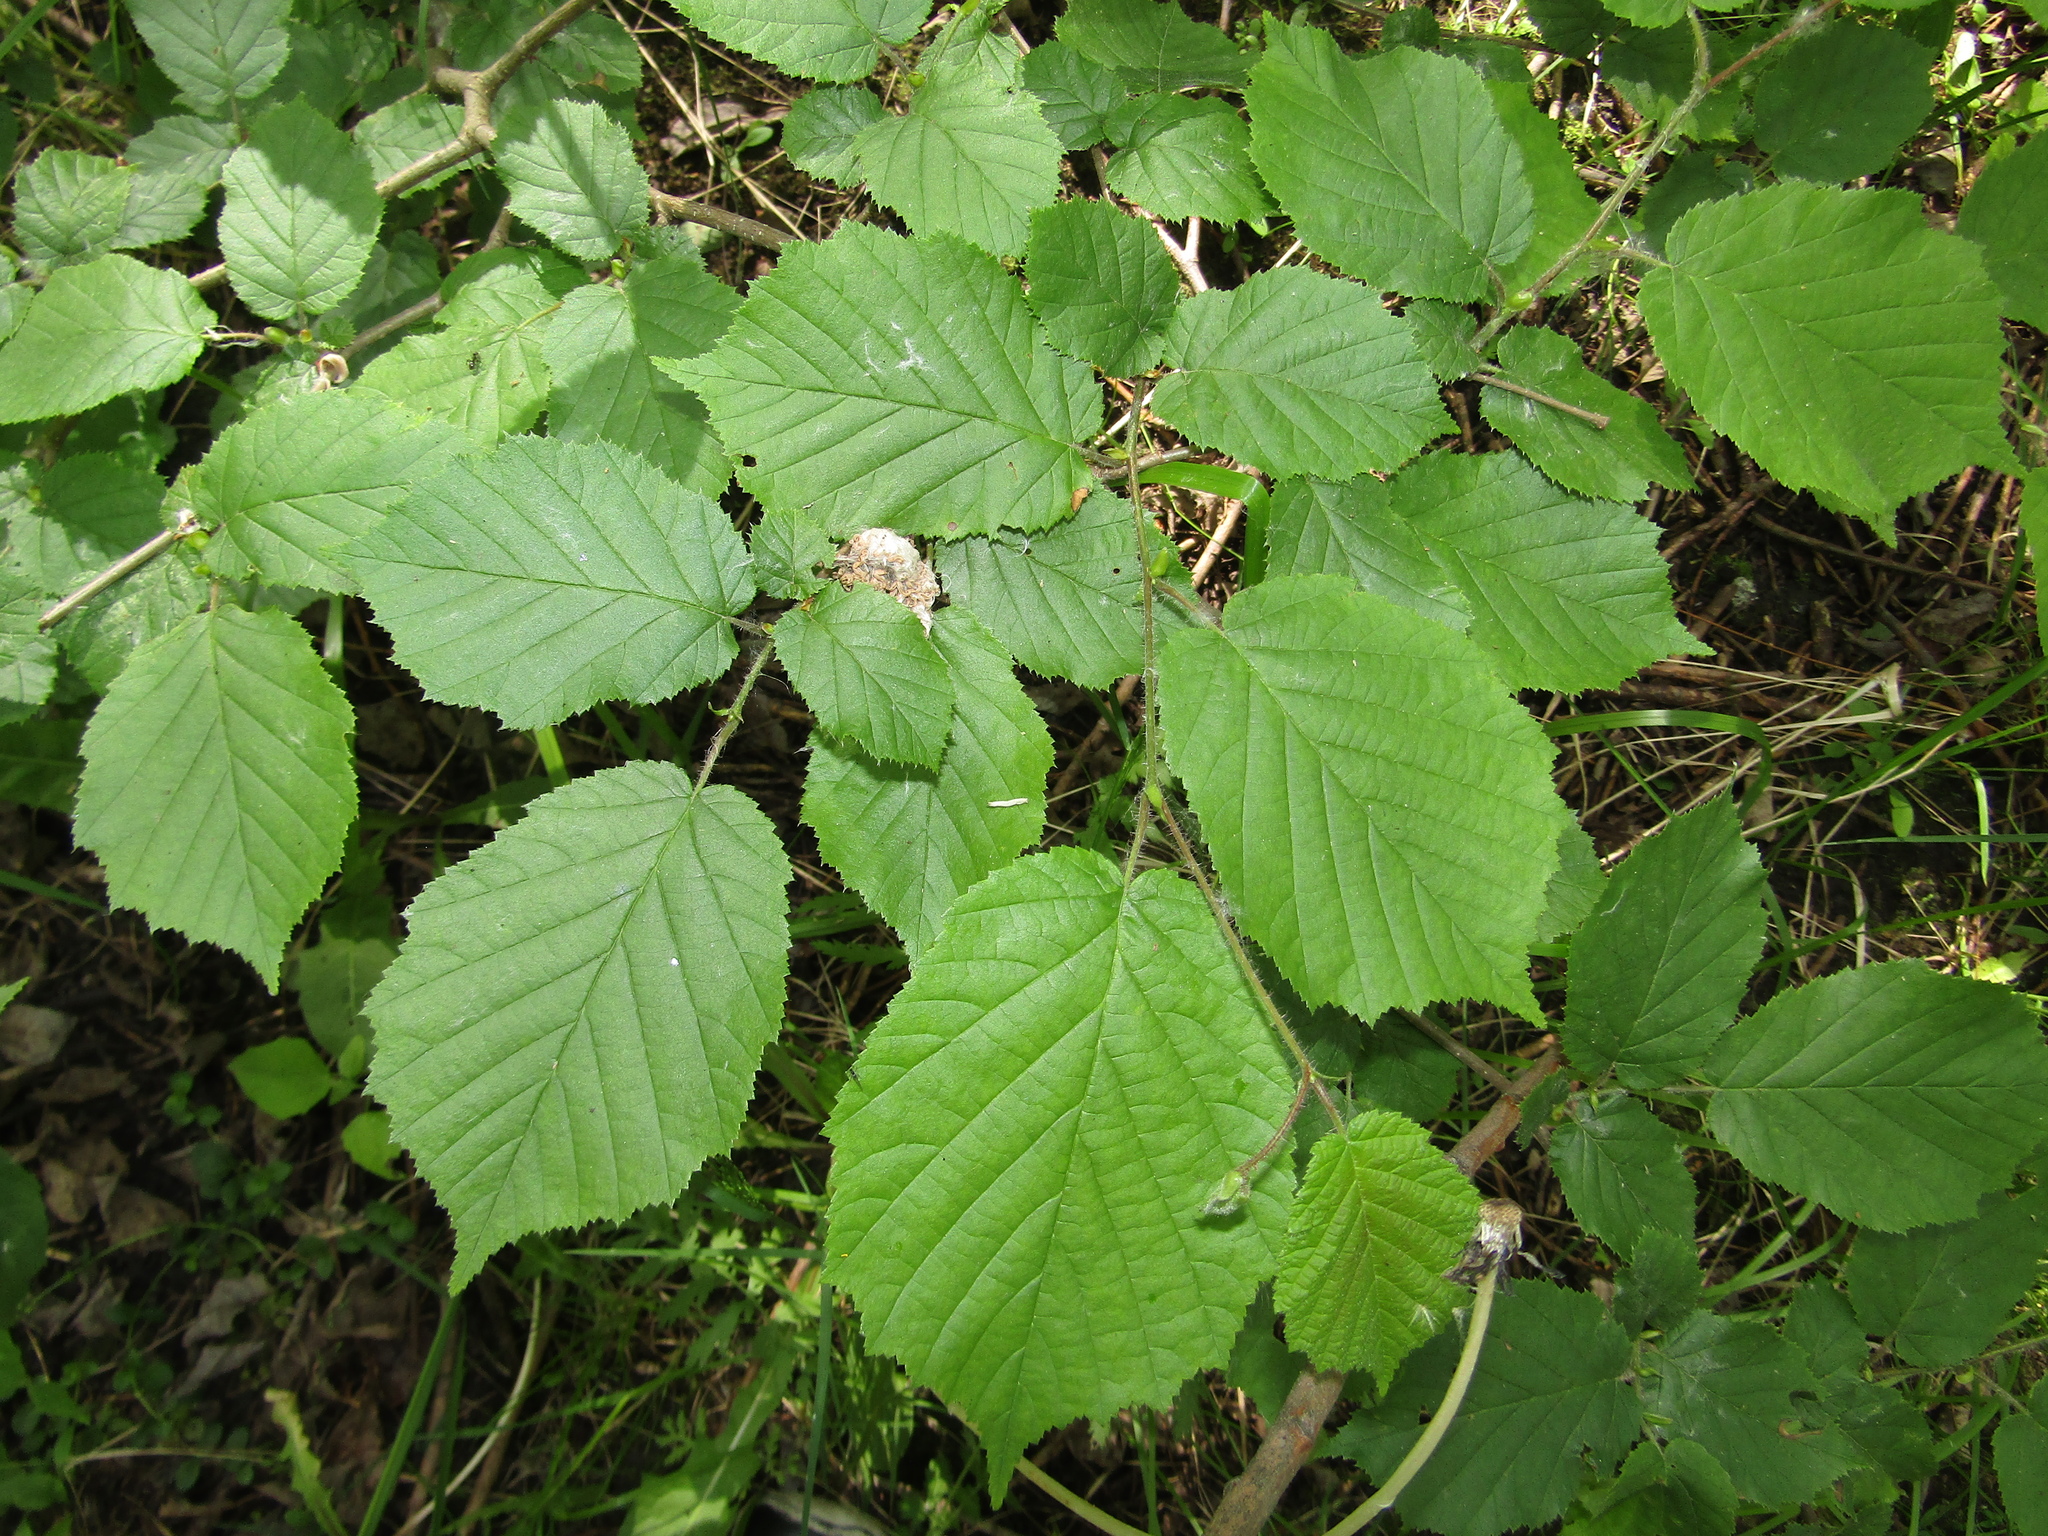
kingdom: Plantae
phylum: Tracheophyta
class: Magnoliopsida
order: Fagales
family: Betulaceae
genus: Corylus
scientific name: Corylus avellana
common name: European hazel
